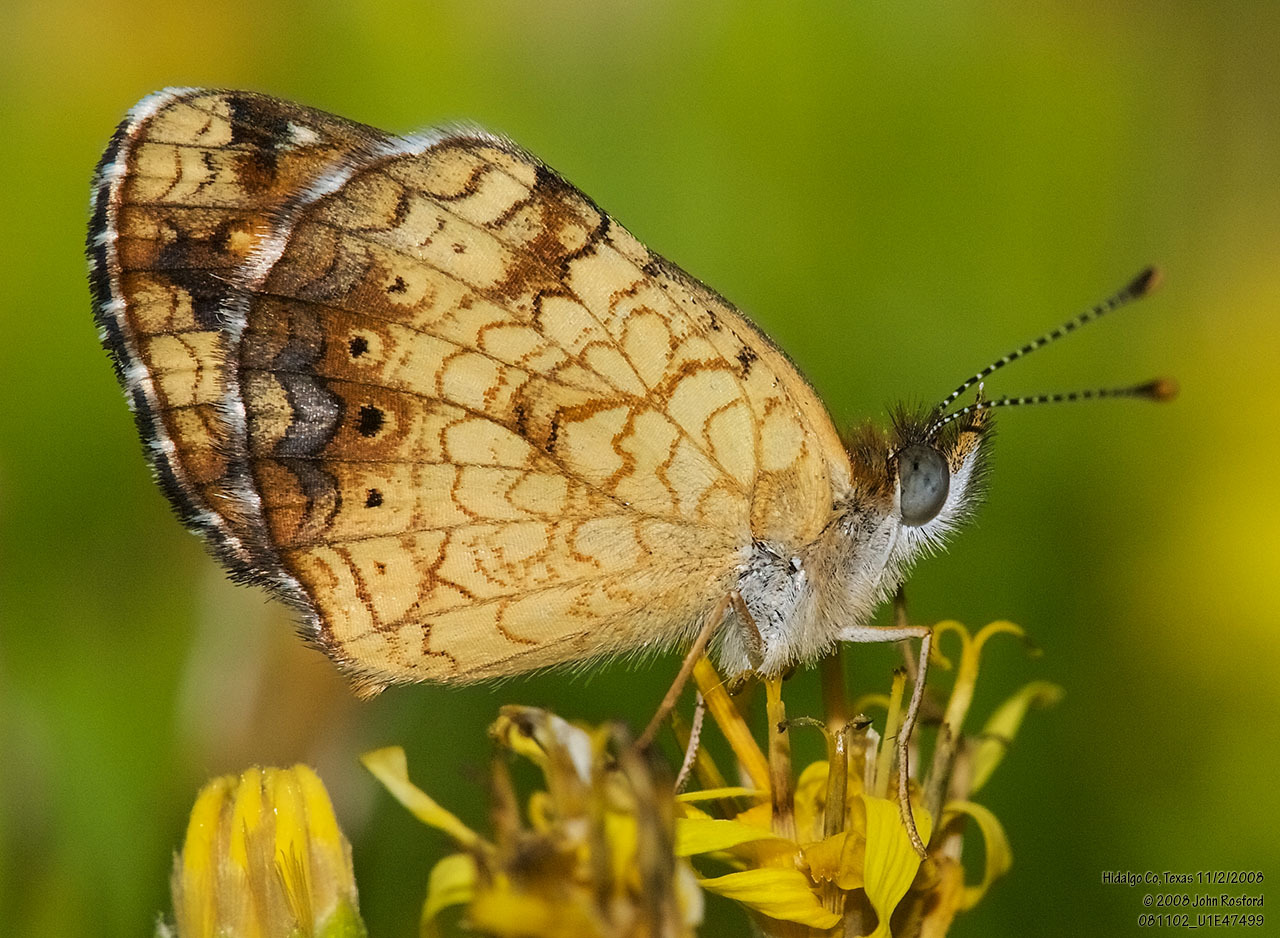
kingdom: Animalia
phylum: Arthropoda
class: Insecta
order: Lepidoptera
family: Nymphalidae
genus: Phyciodes
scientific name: Phyciodes vesta
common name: Vesta crescent
